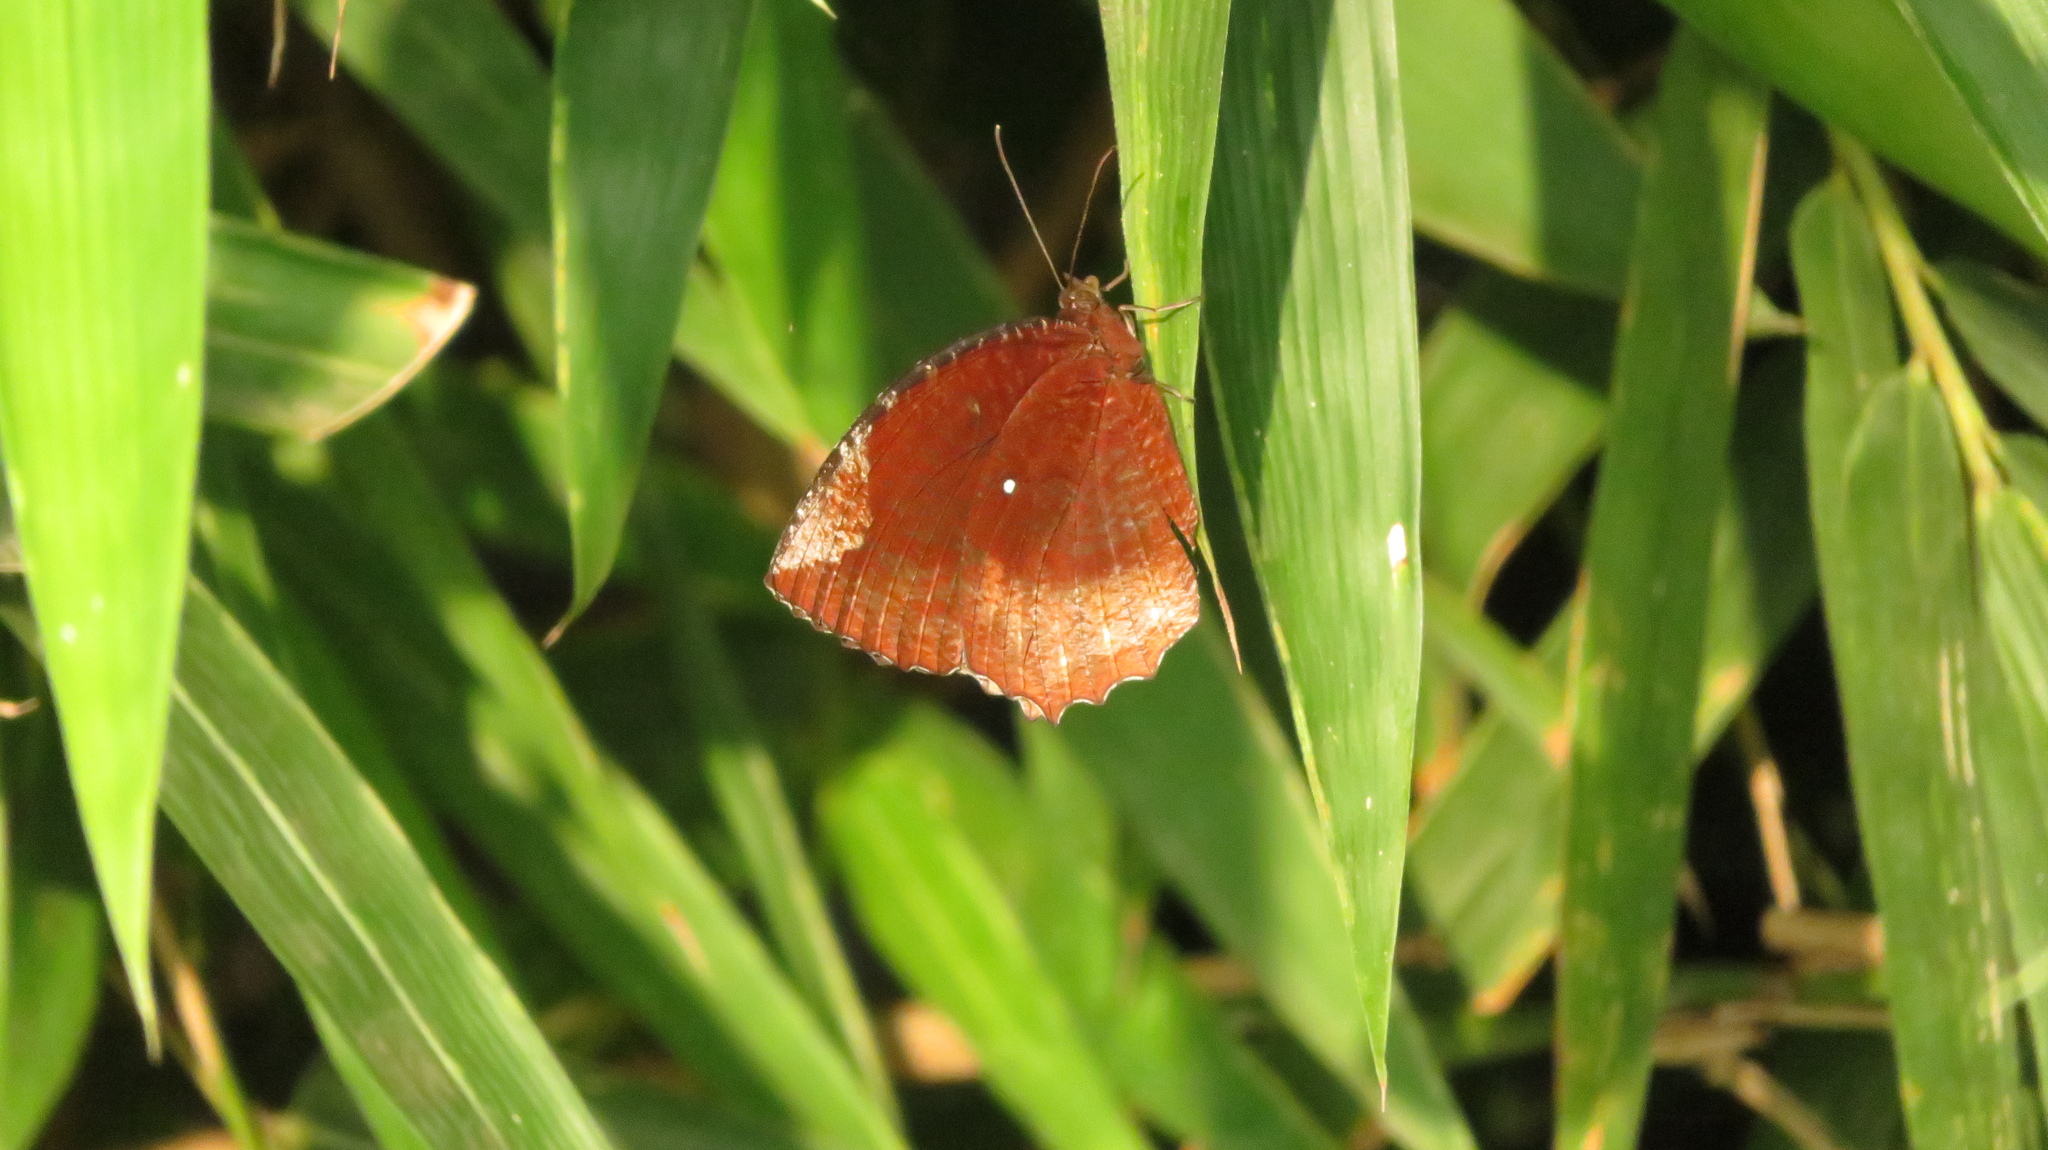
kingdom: Animalia
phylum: Arthropoda
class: Insecta
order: Lepidoptera
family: Nymphalidae
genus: Elymnias
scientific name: Elymnias hypermnestra
